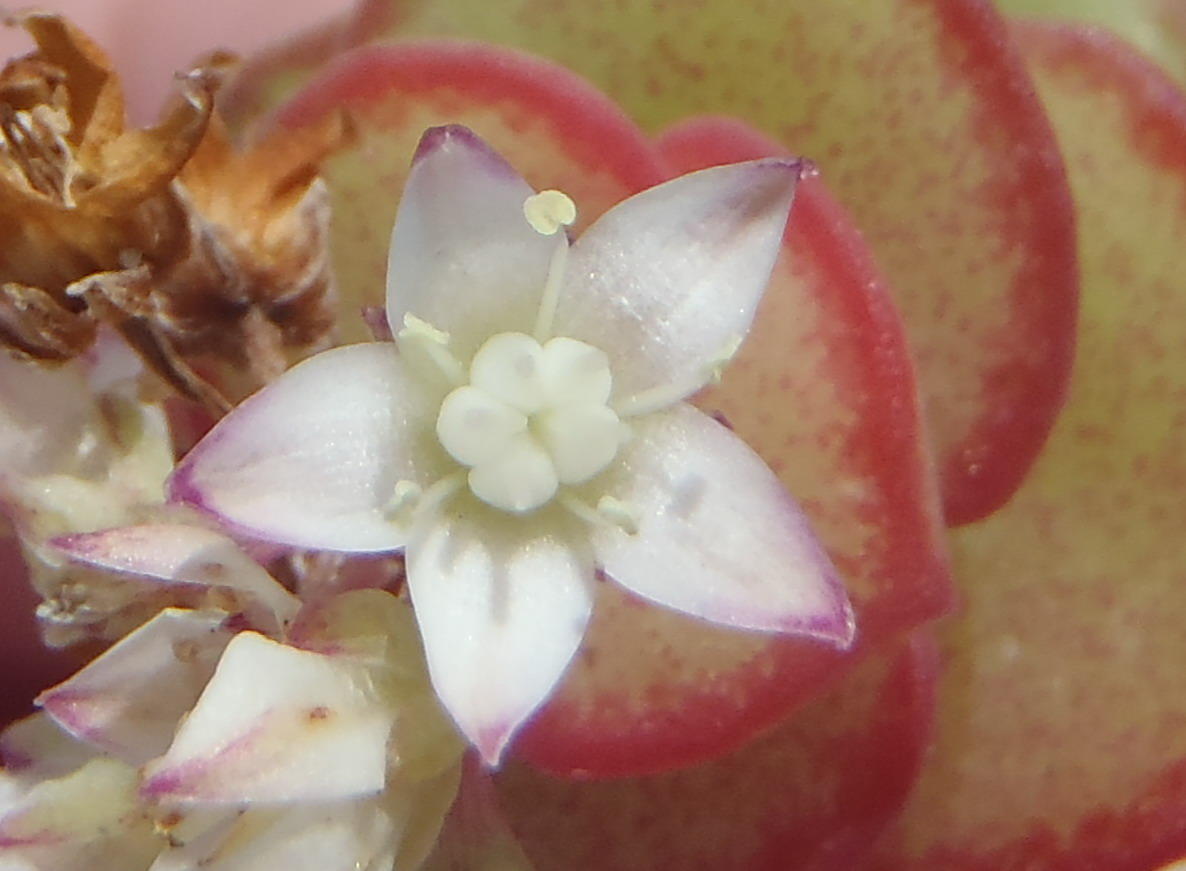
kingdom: Plantae
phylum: Tracheophyta
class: Magnoliopsida
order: Saxifragales
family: Crassulaceae
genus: Crassula
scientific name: Crassula pellucida
